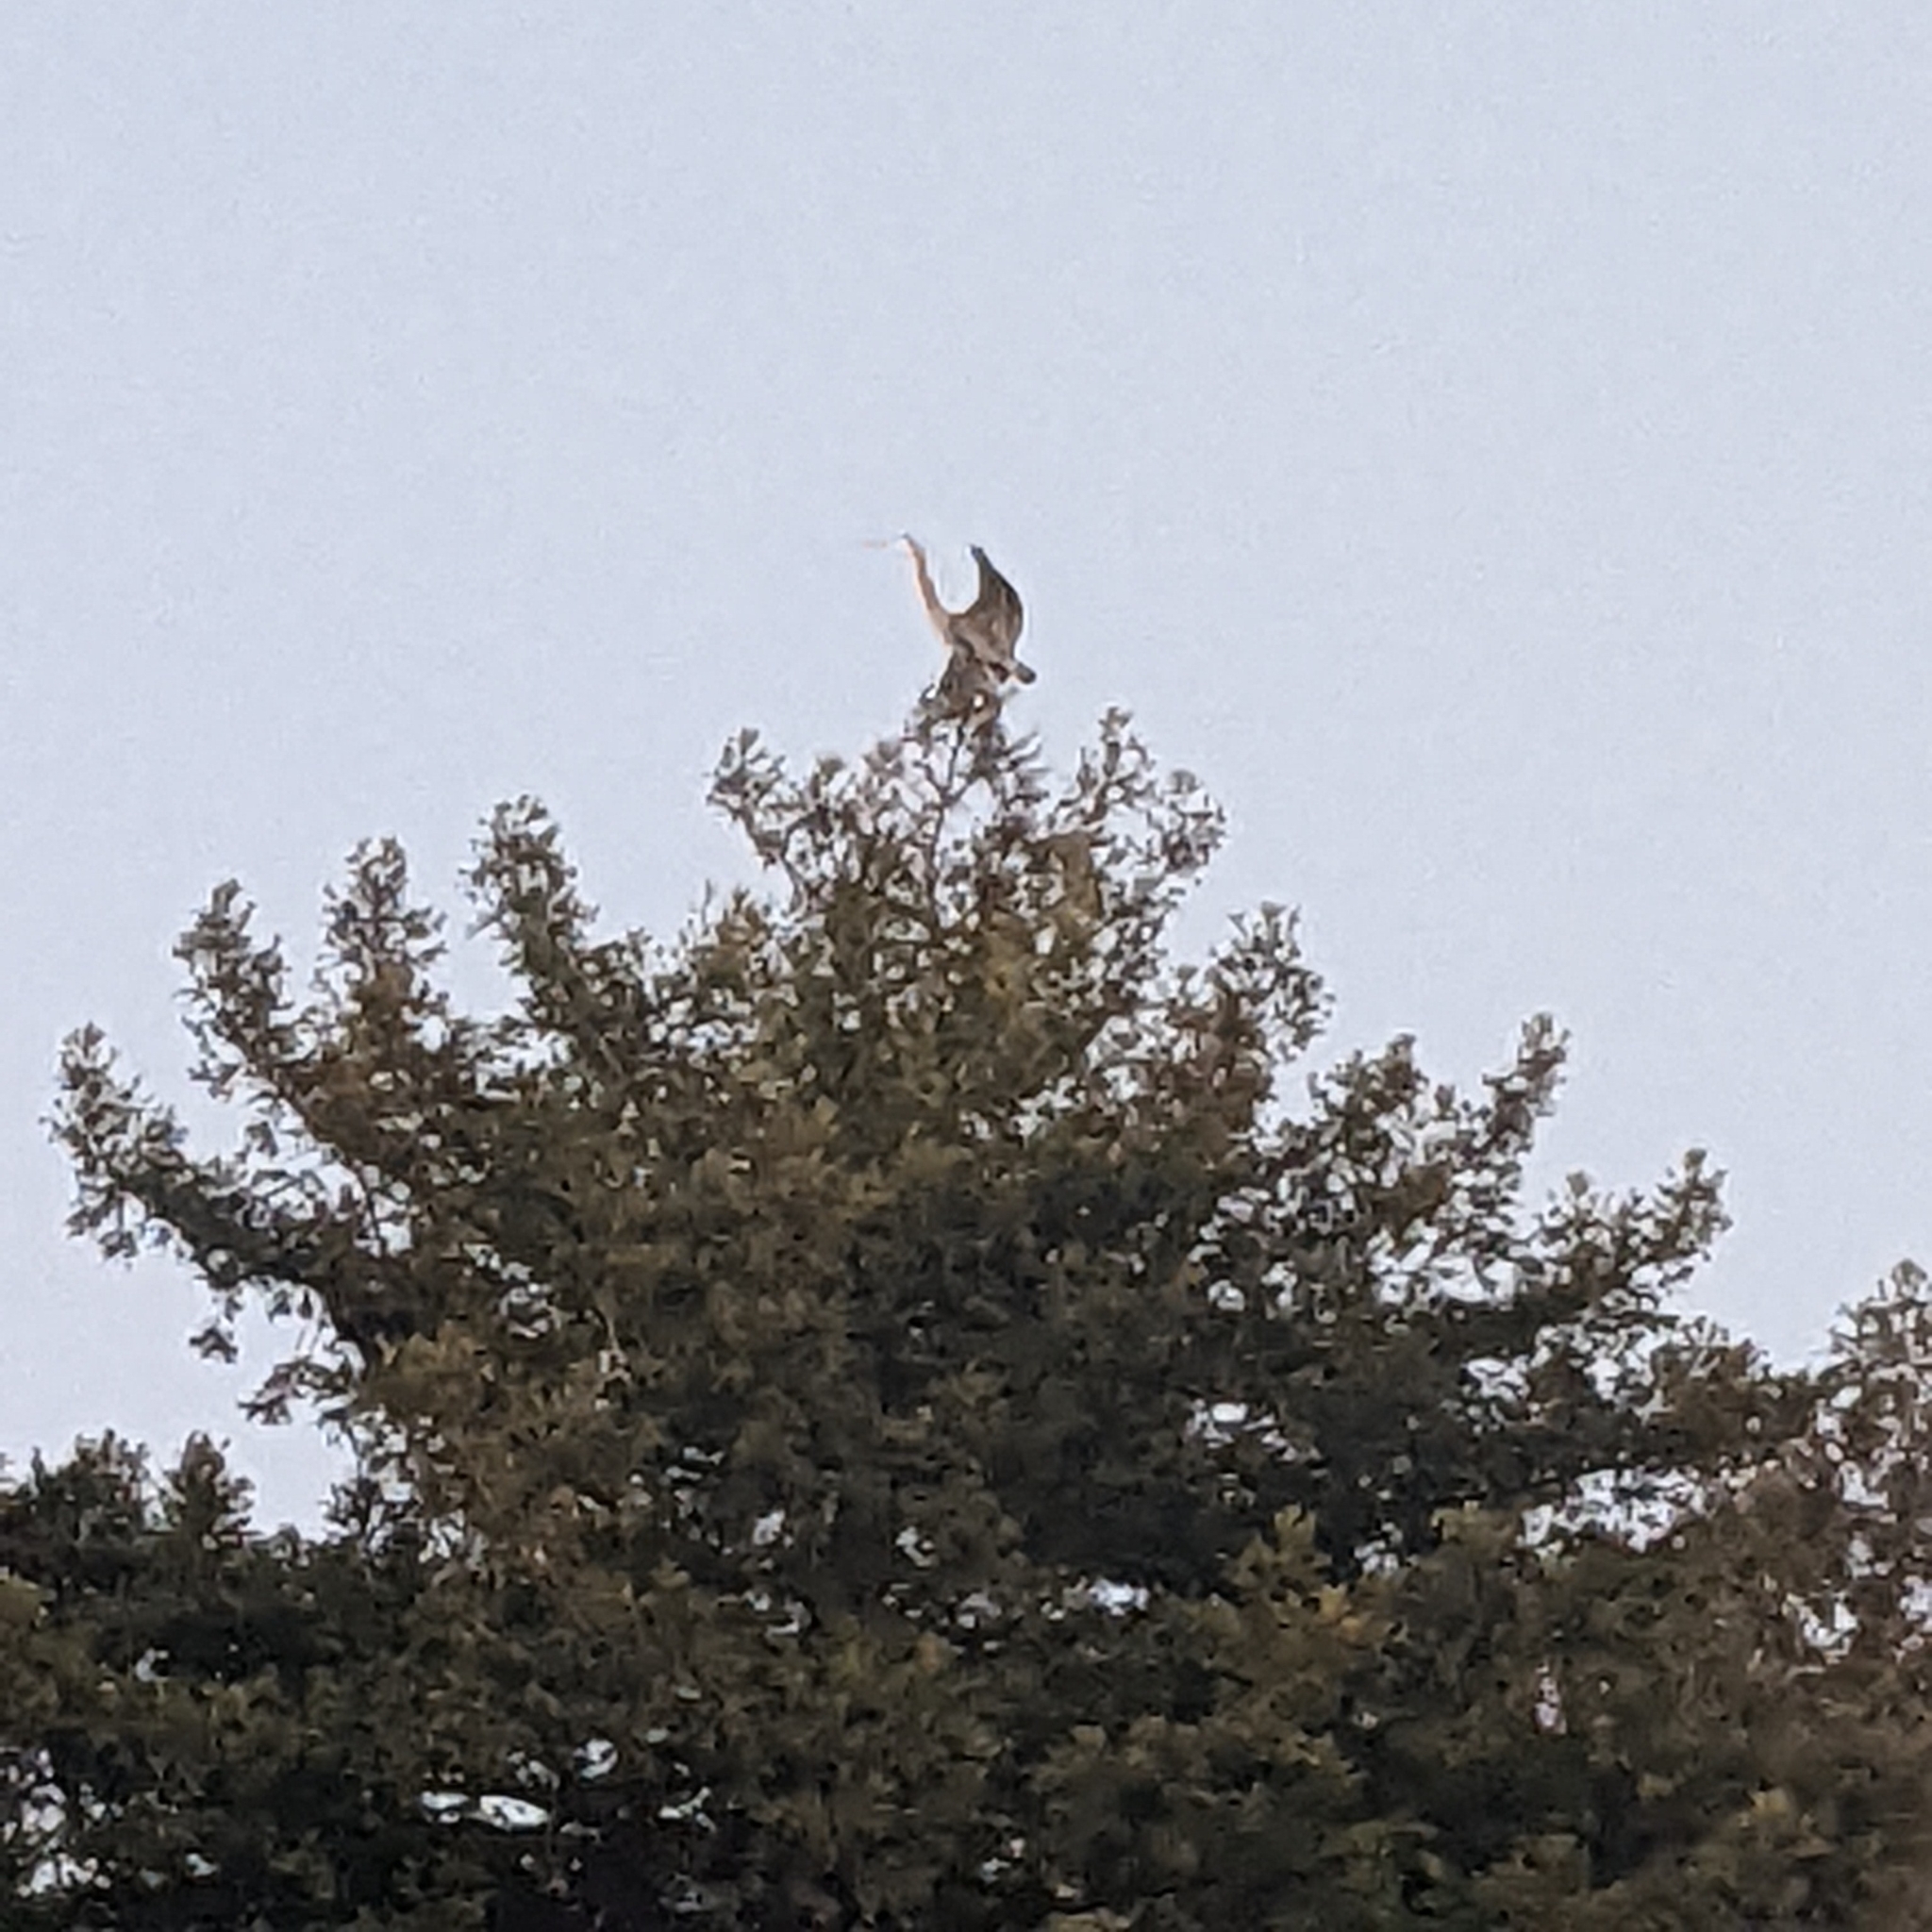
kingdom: Animalia
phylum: Chordata
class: Aves
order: Pelecaniformes
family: Ardeidae
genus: Ardea
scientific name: Ardea herodias
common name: Great blue heron
